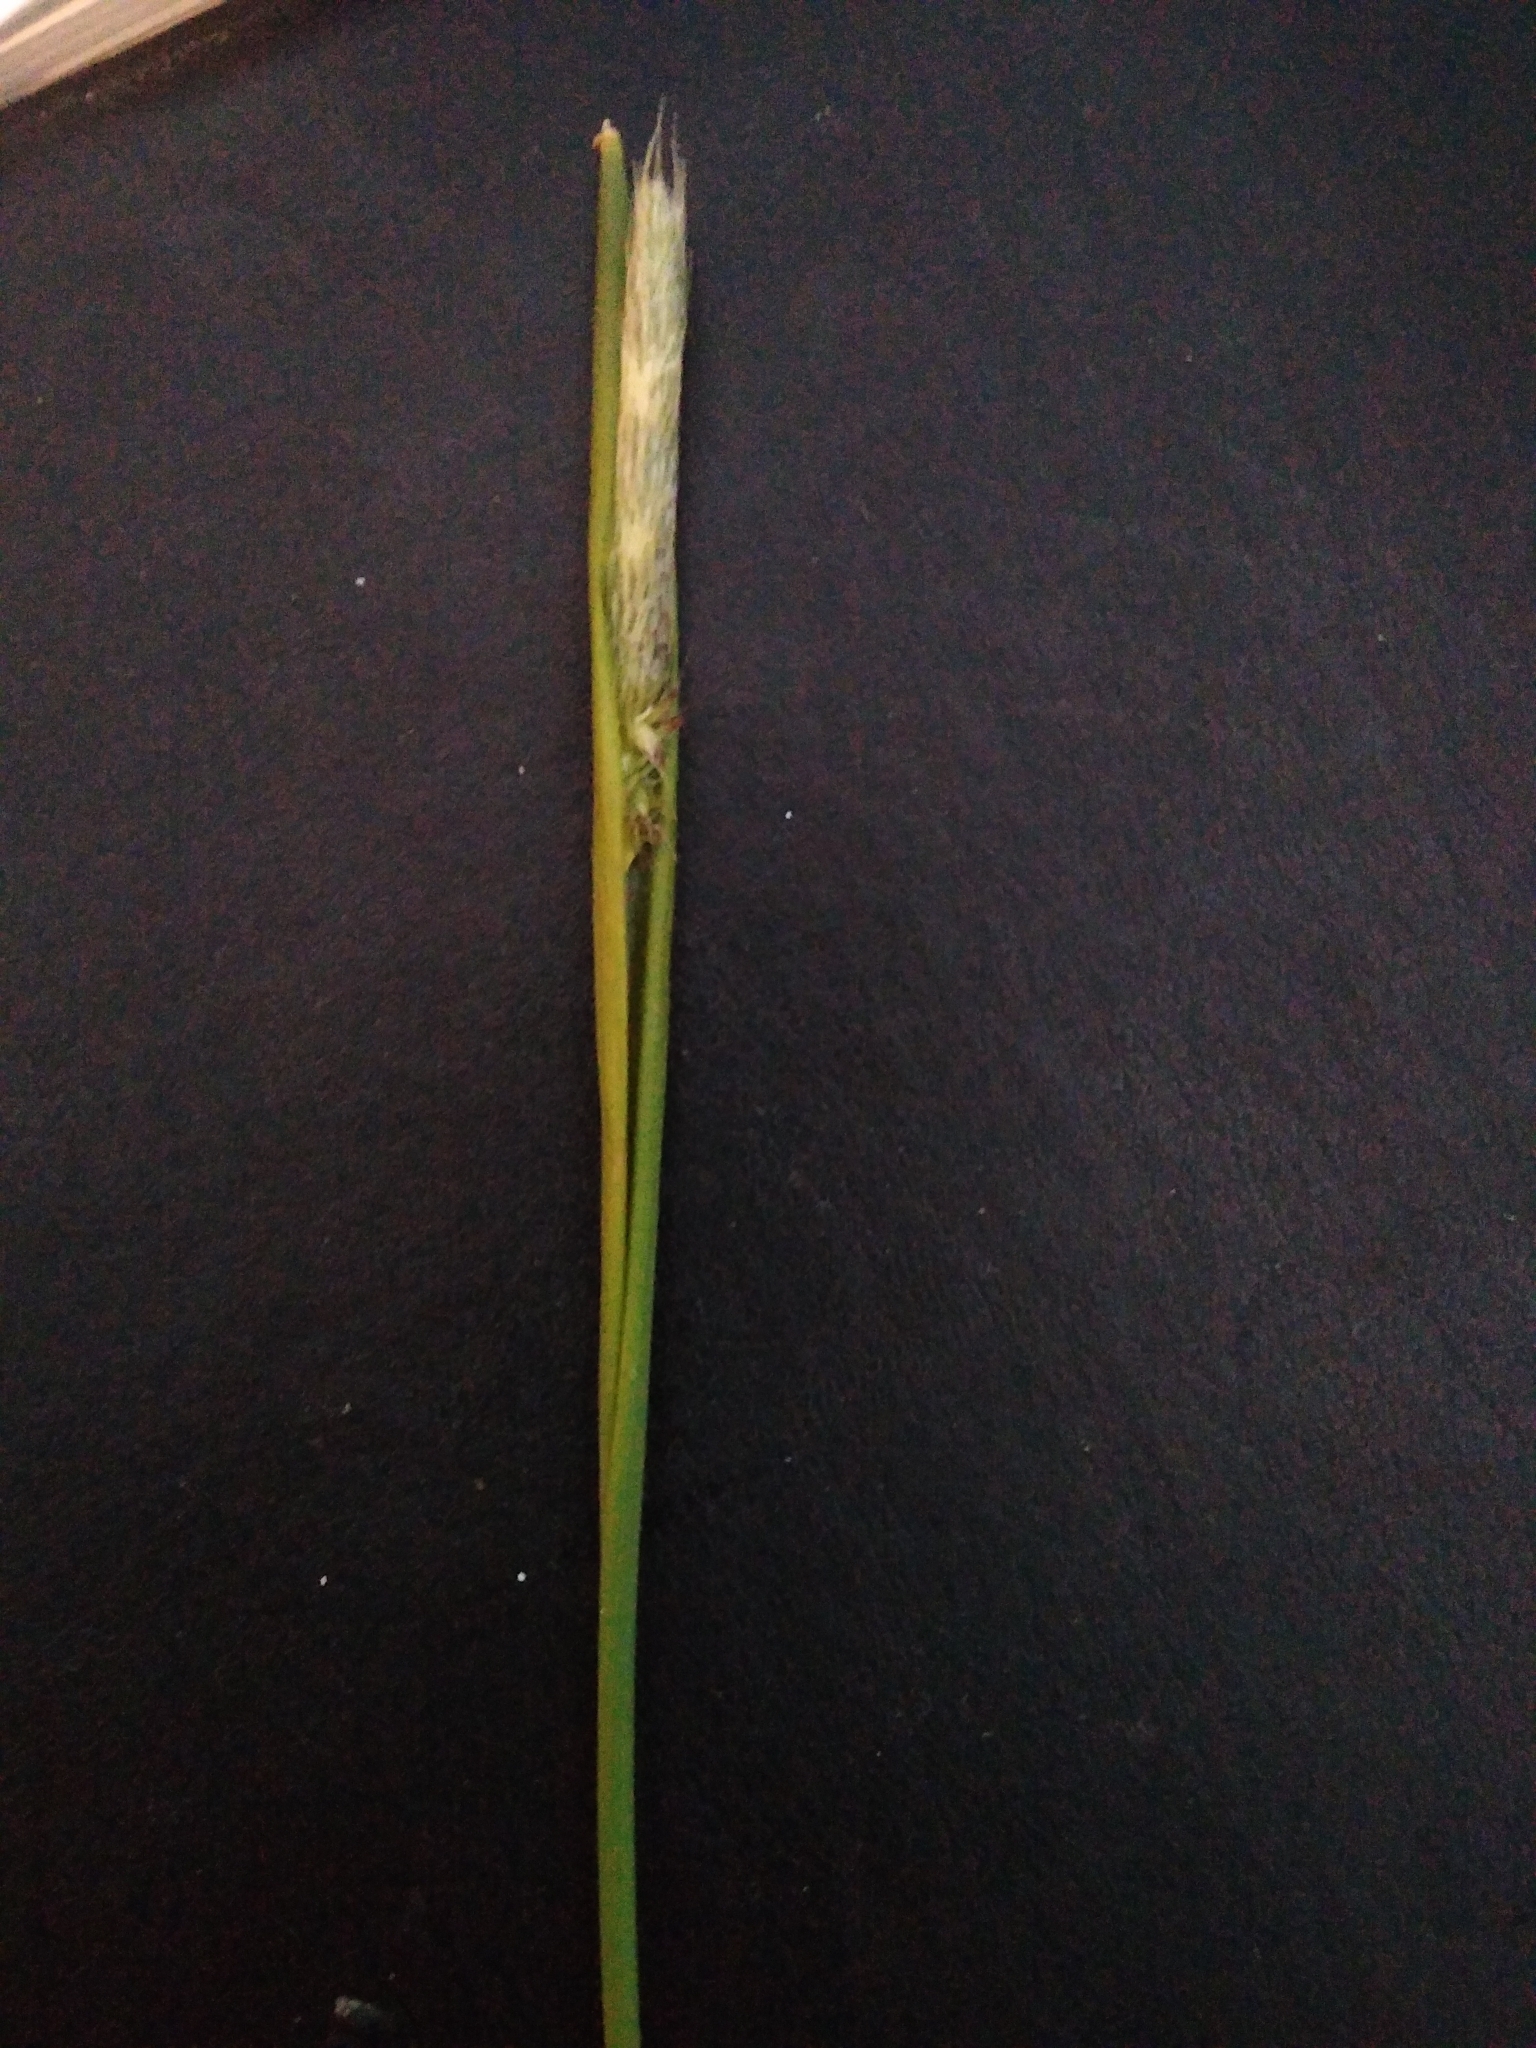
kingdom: Plantae
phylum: Tracheophyta
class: Liliopsida
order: Poales
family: Poaceae
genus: Holcus
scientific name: Holcus lanatus
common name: Yorkshire-fog
